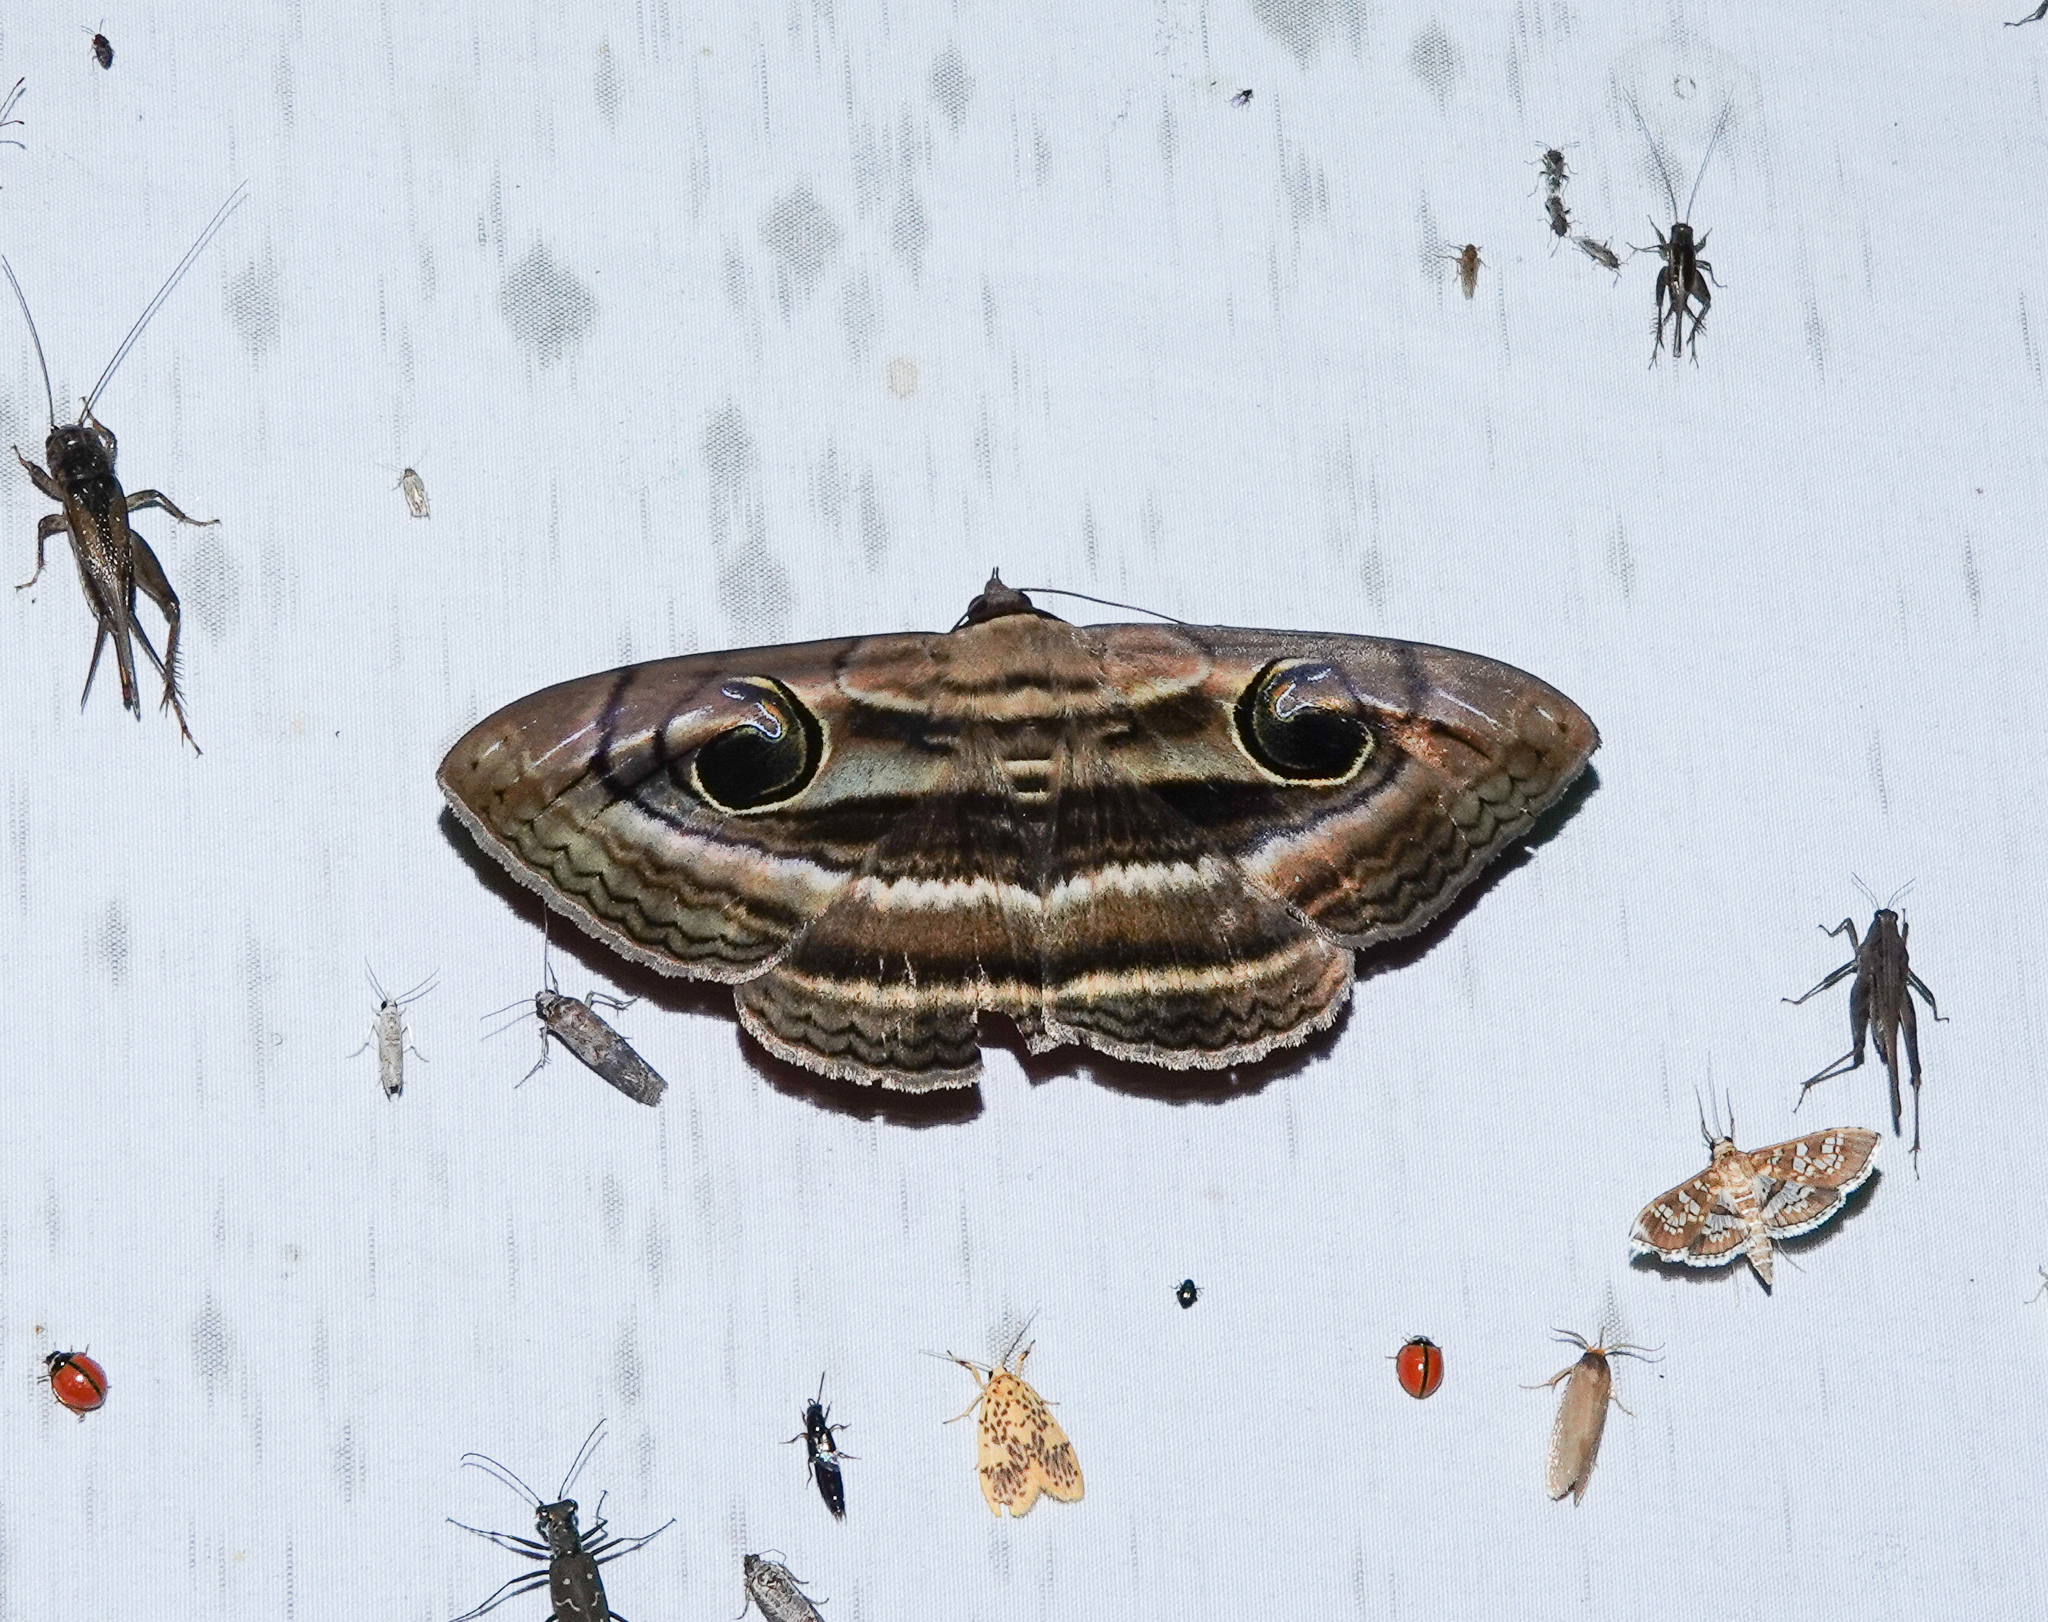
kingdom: Animalia
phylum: Arthropoda
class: Insecta
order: Lepidoptera
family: Erebidae
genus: Spirama
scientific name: Spirama helicina
